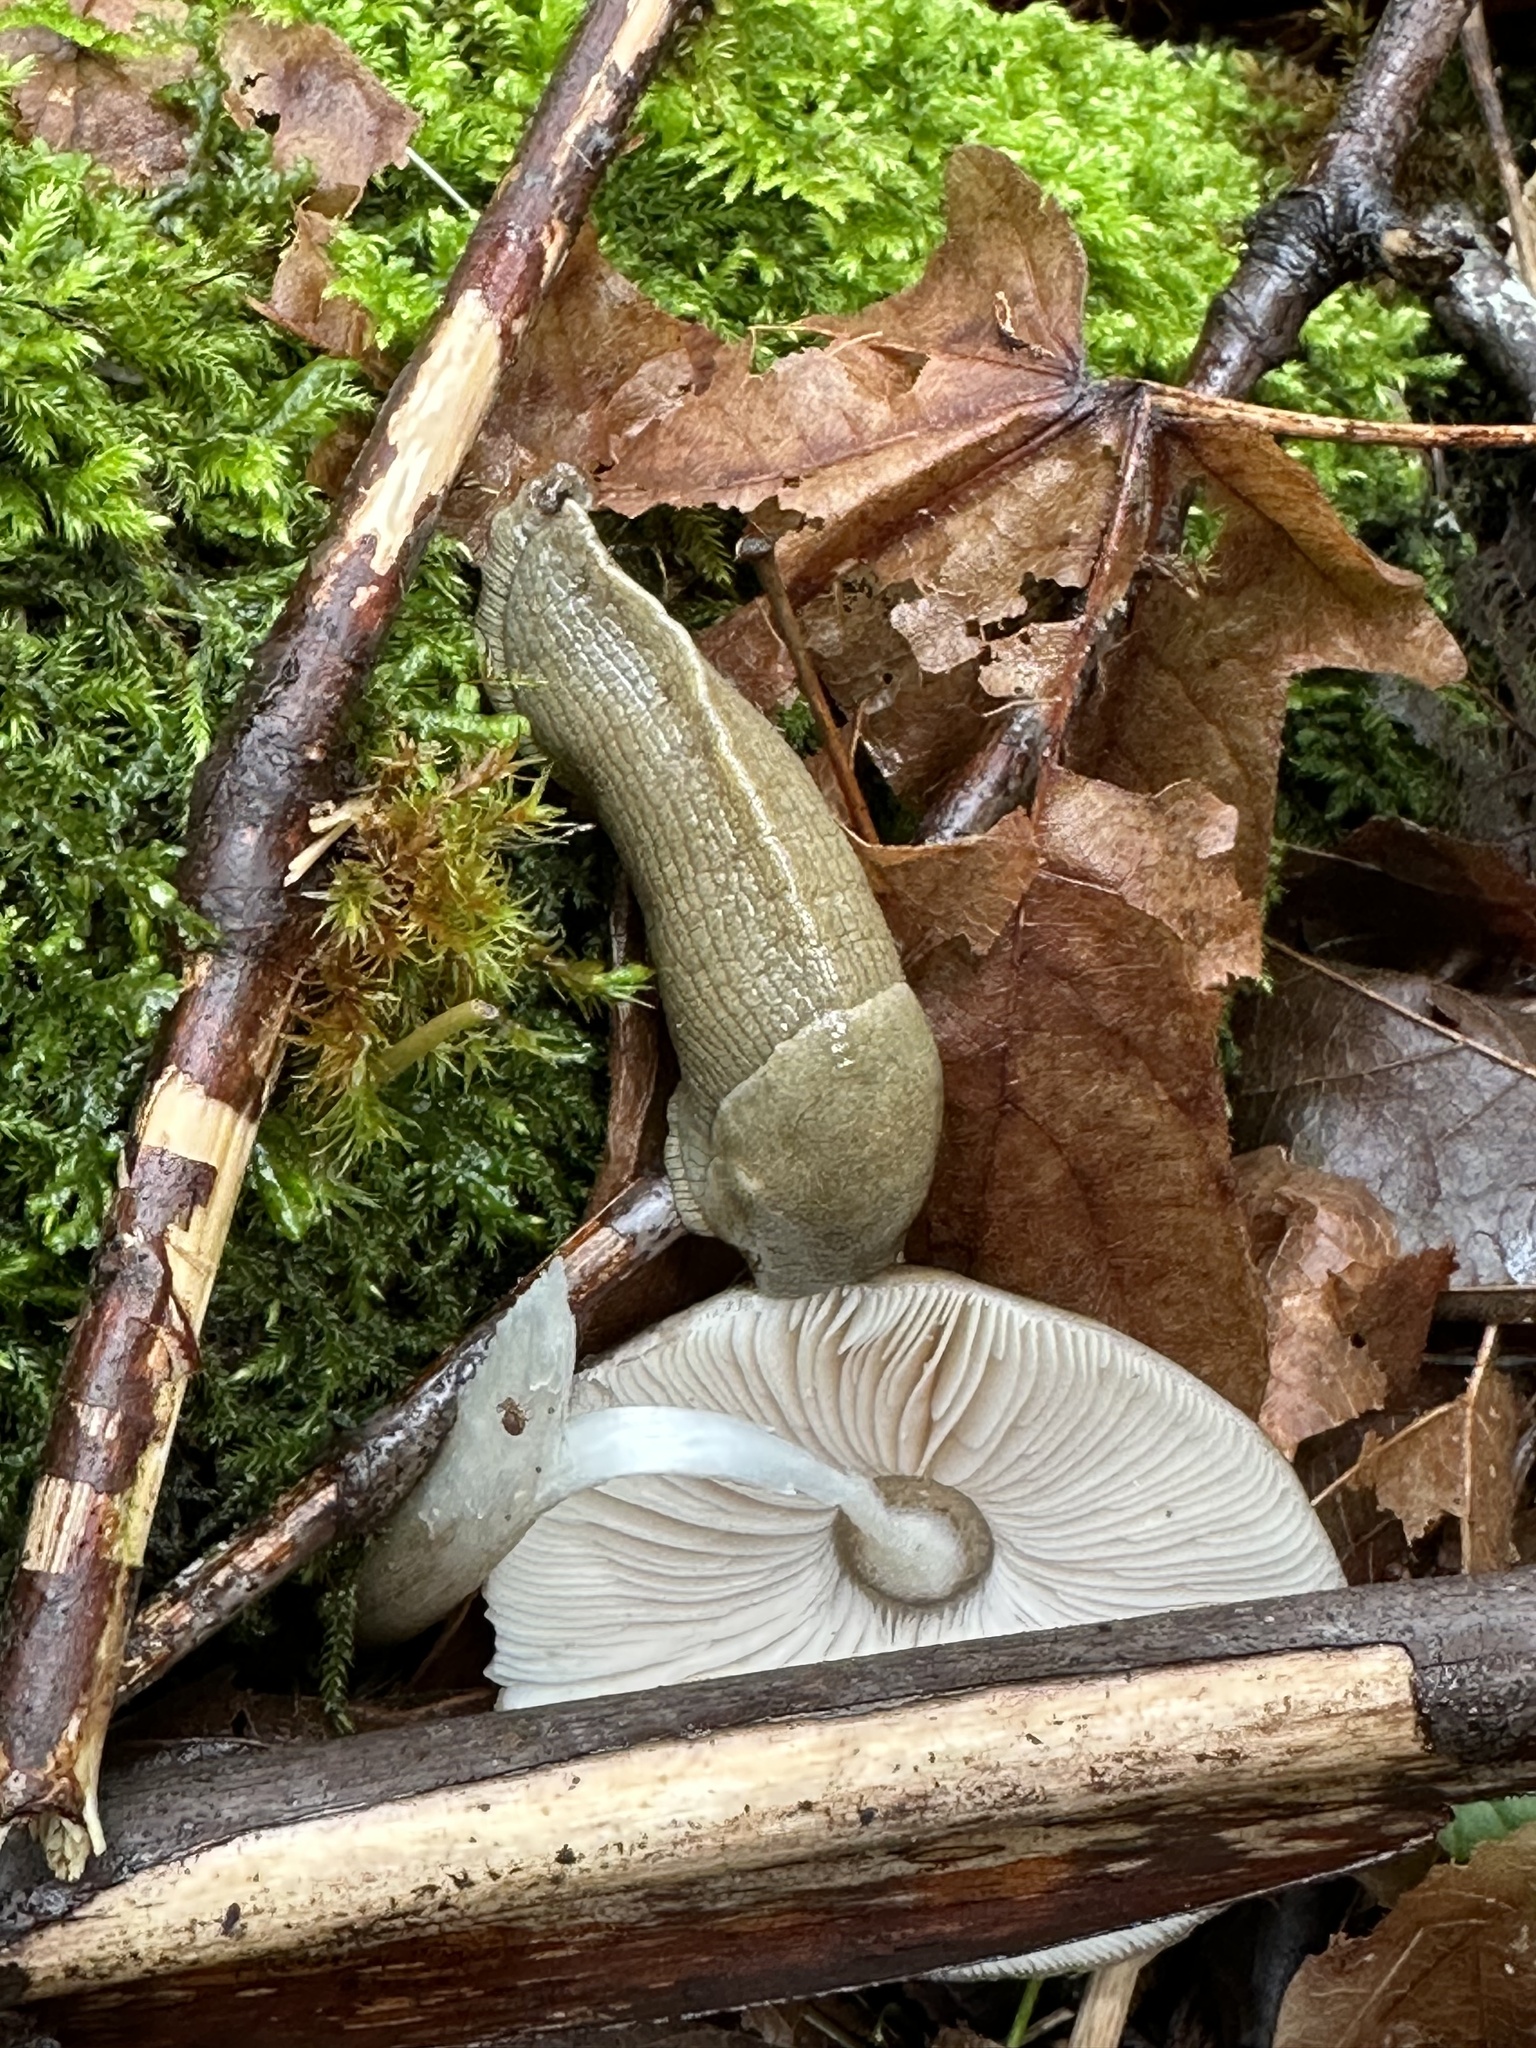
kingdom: Animalia
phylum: Mollusca
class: Gastropoda
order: Stylommatophora
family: Ariolimacidae
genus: Ariolimax
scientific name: Ariolimax columbianus
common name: Pacific banana slug
